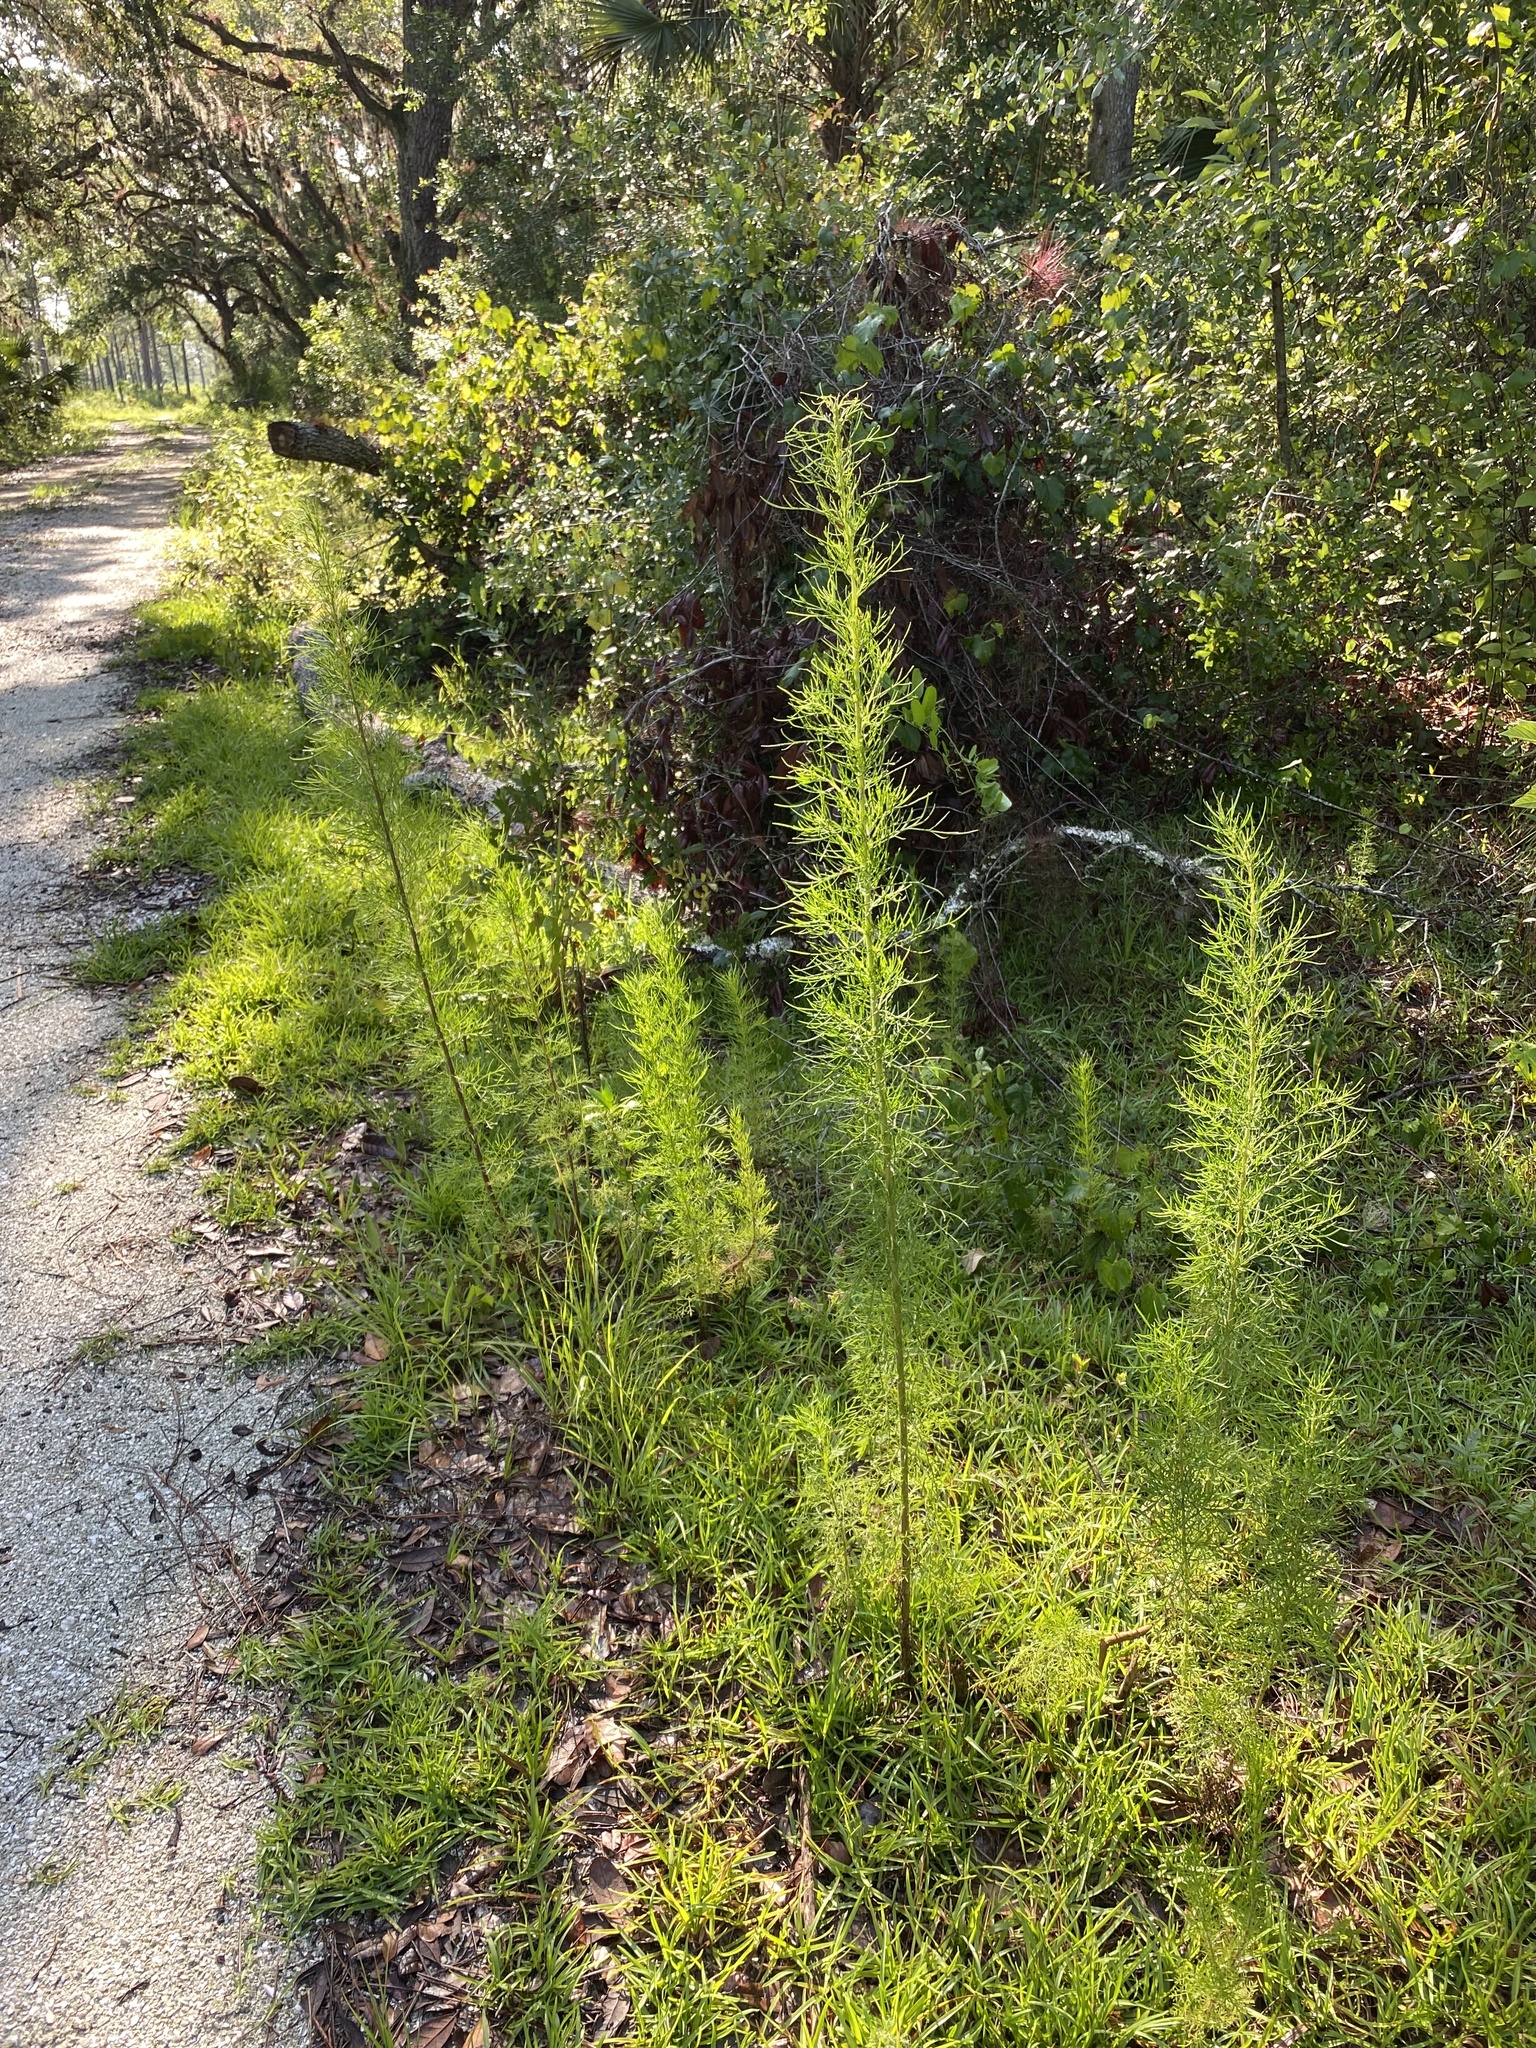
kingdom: Plantae
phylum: Tracheophyta
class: Magnoliopsida
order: Asterales
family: Asteraceae
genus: Eupatorium
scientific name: Eupatorium capillifolium
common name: Dog-fennel
